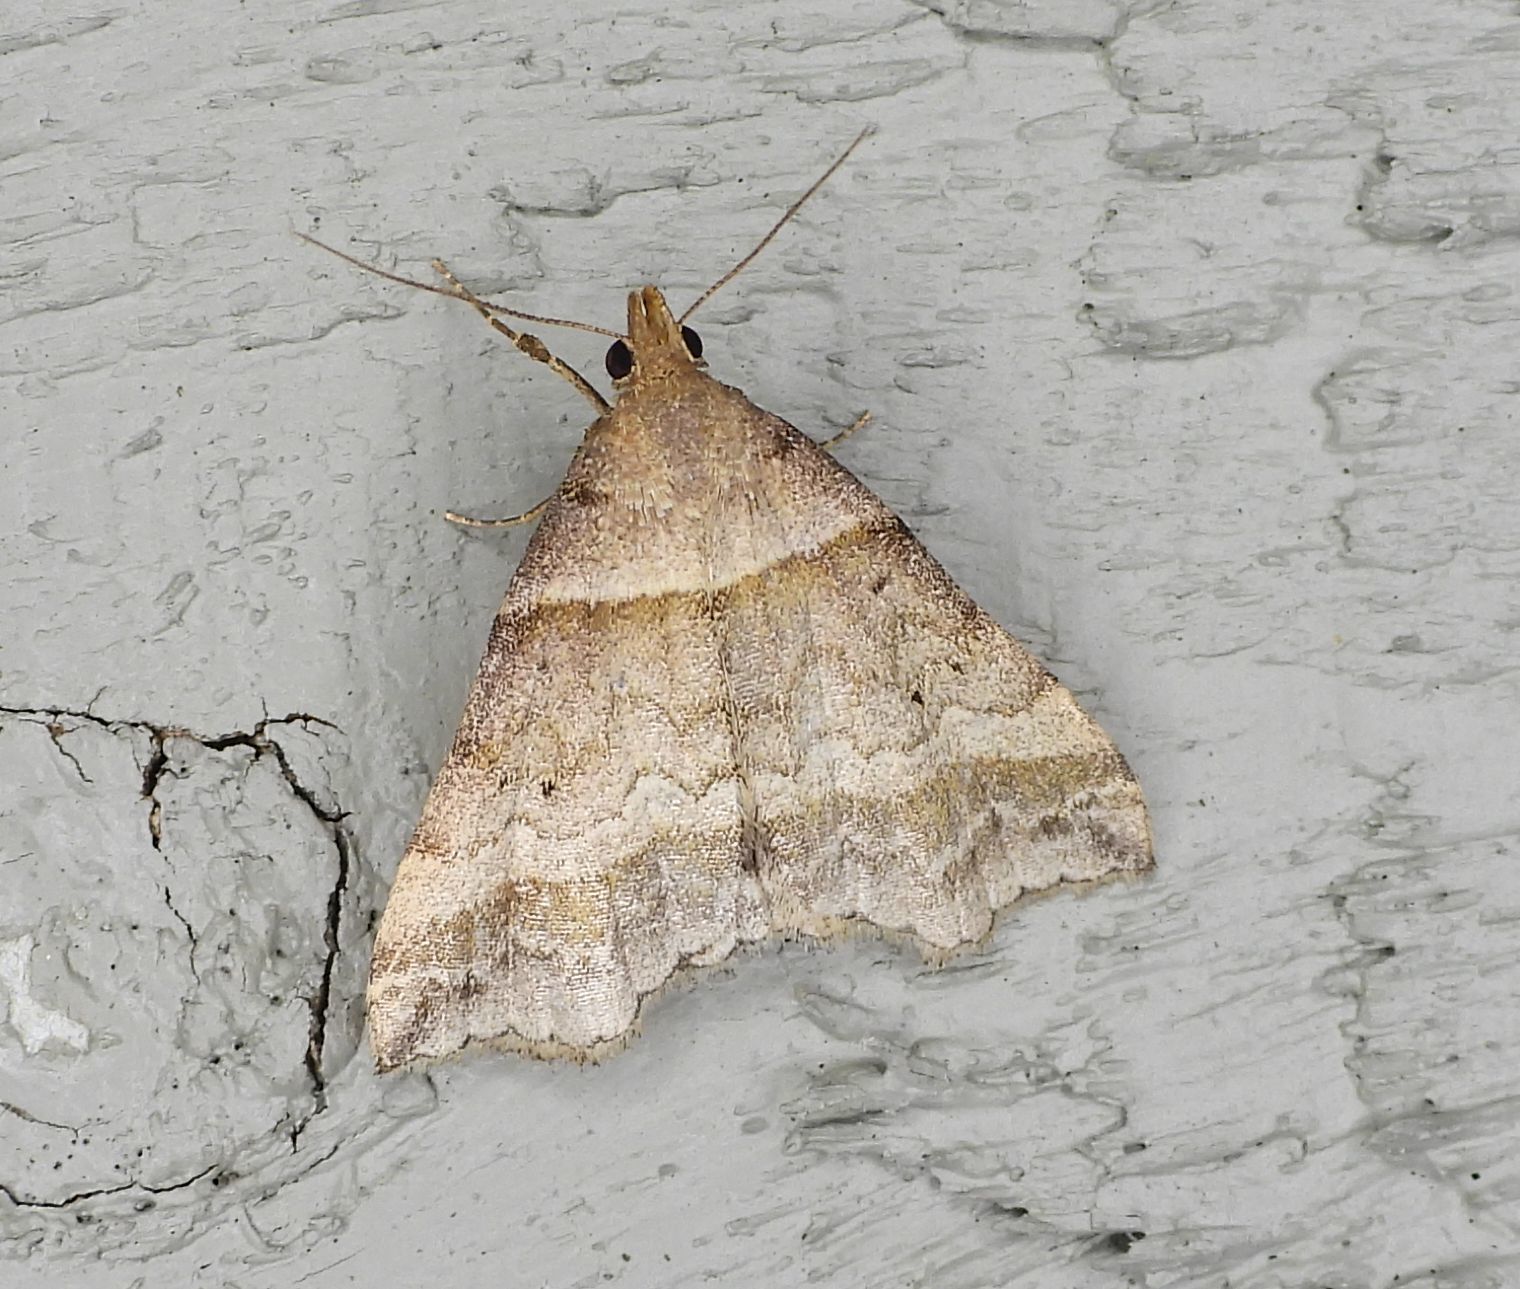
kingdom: Animalia
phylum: Arthropoda
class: Insecta
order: Lepidoptera
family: Erebidae
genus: Phaeolita
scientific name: Phaeolita pyramusalis
